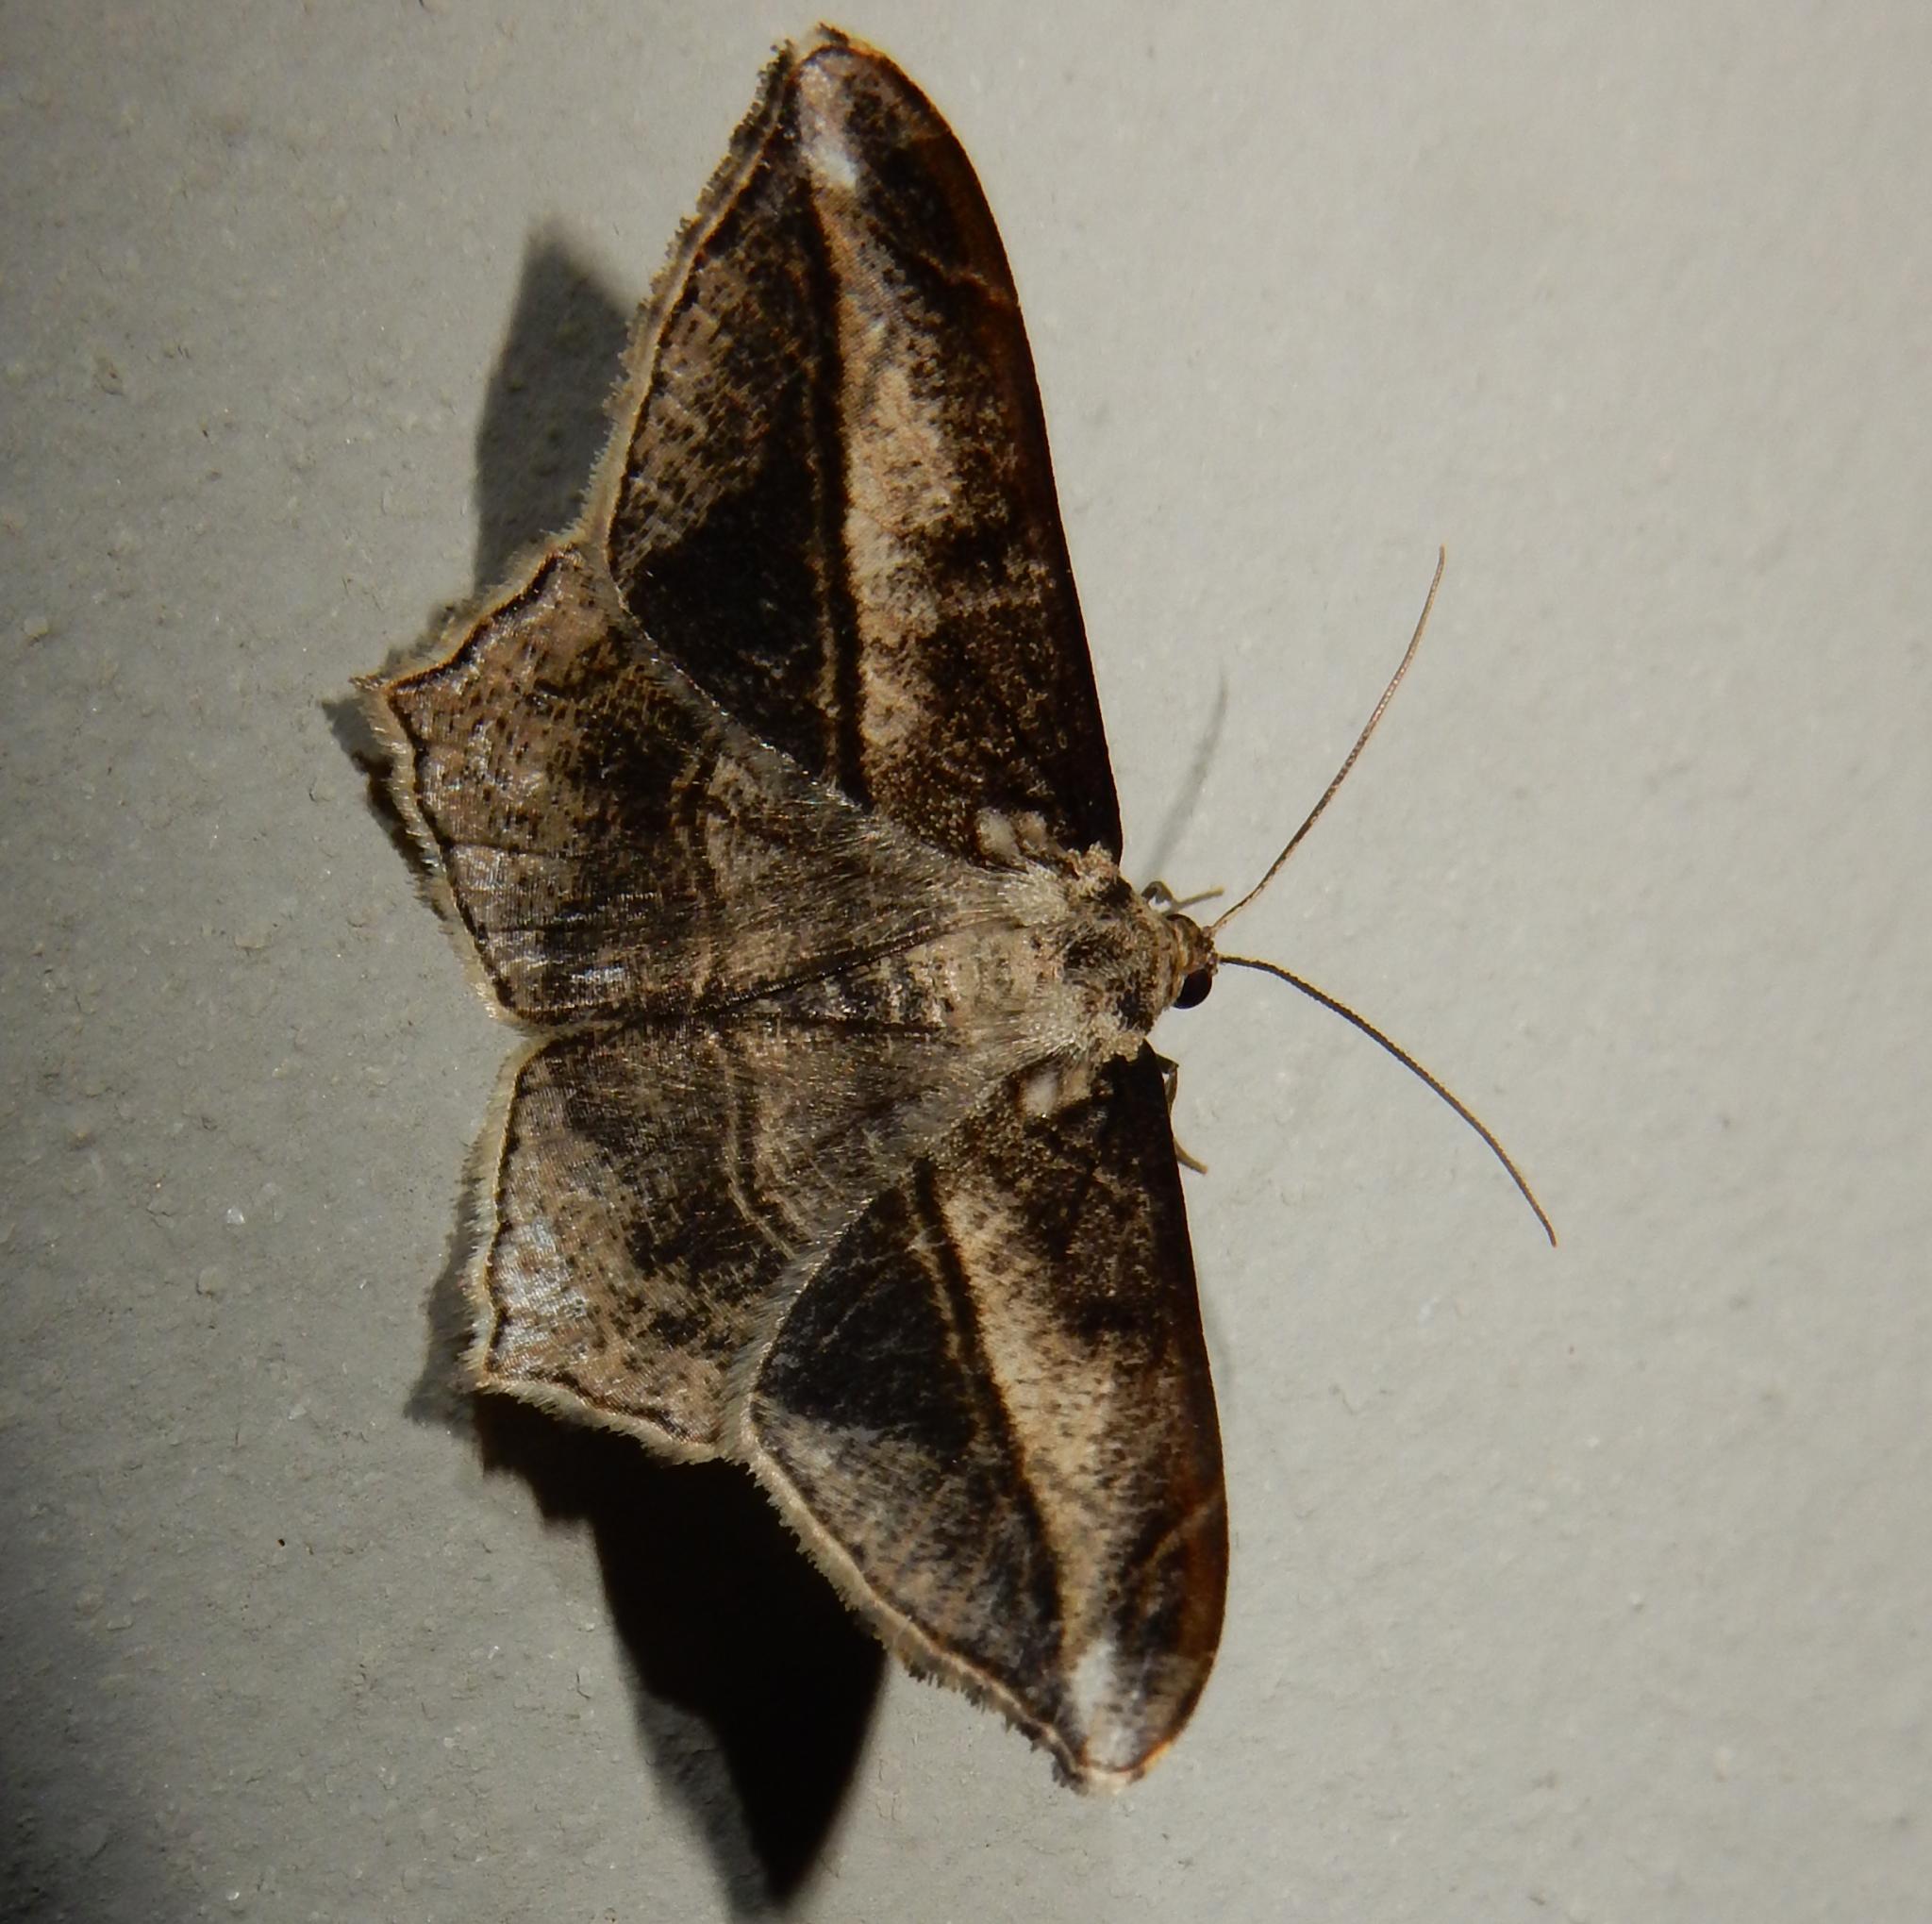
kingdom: Animalia
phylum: Arthropoda
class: Insecta
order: Lepidoptera
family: Geometridae
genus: Chiasmia
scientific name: Chiasmia simplicilinea
